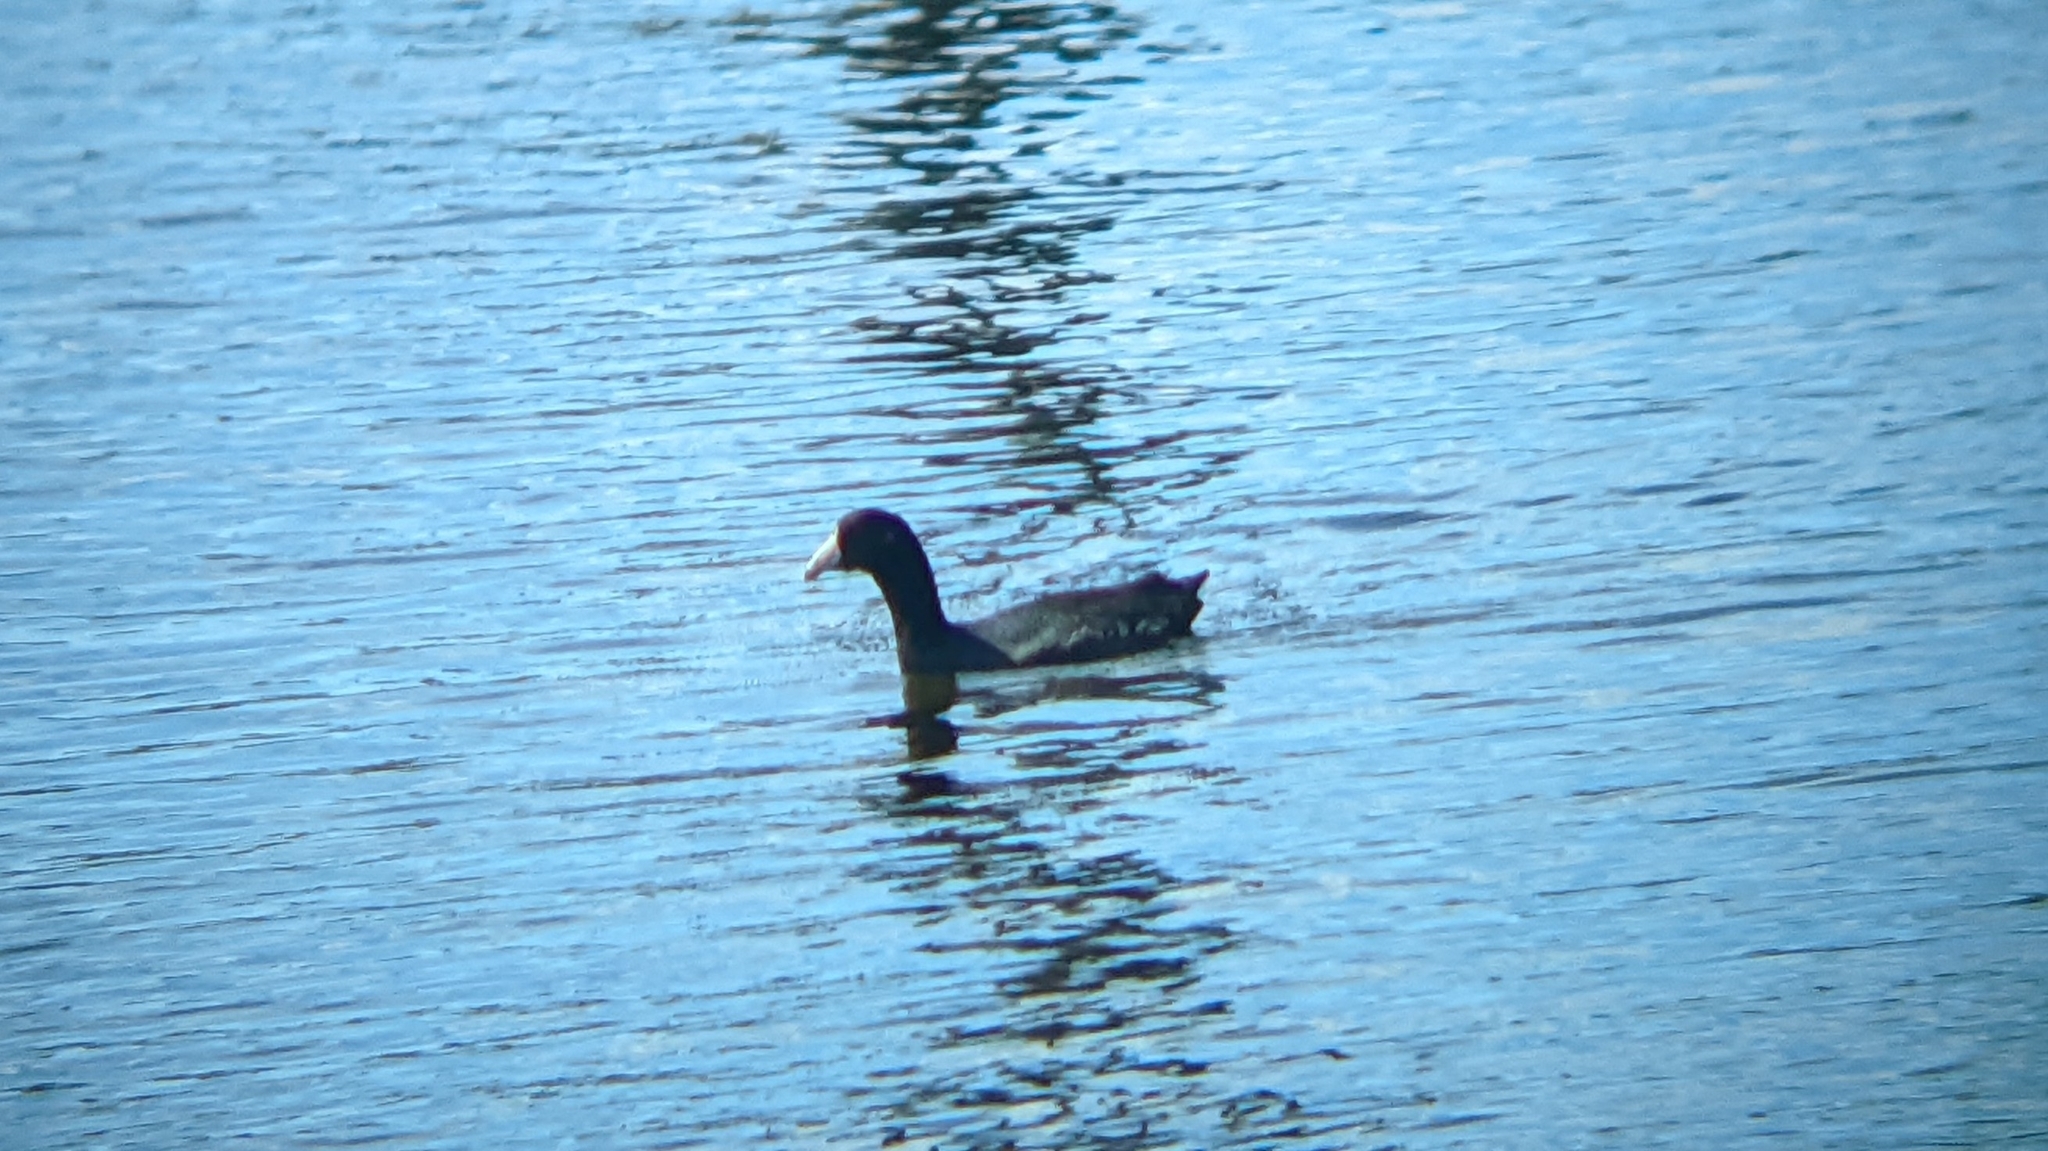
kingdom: Animalia
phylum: Chordata
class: Aves
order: Gruiformes
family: Rallidae
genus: Fulica
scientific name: Fulica americana
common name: American coot
